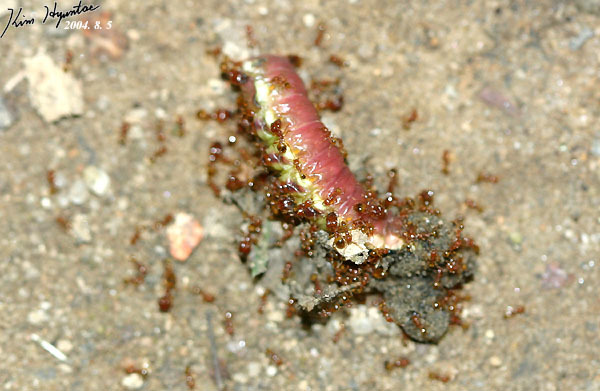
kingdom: Animalia
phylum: Arthropoda
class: Insecta
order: Hymenoptera
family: Formicidae
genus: Pheidole
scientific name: Pheidole fervida
